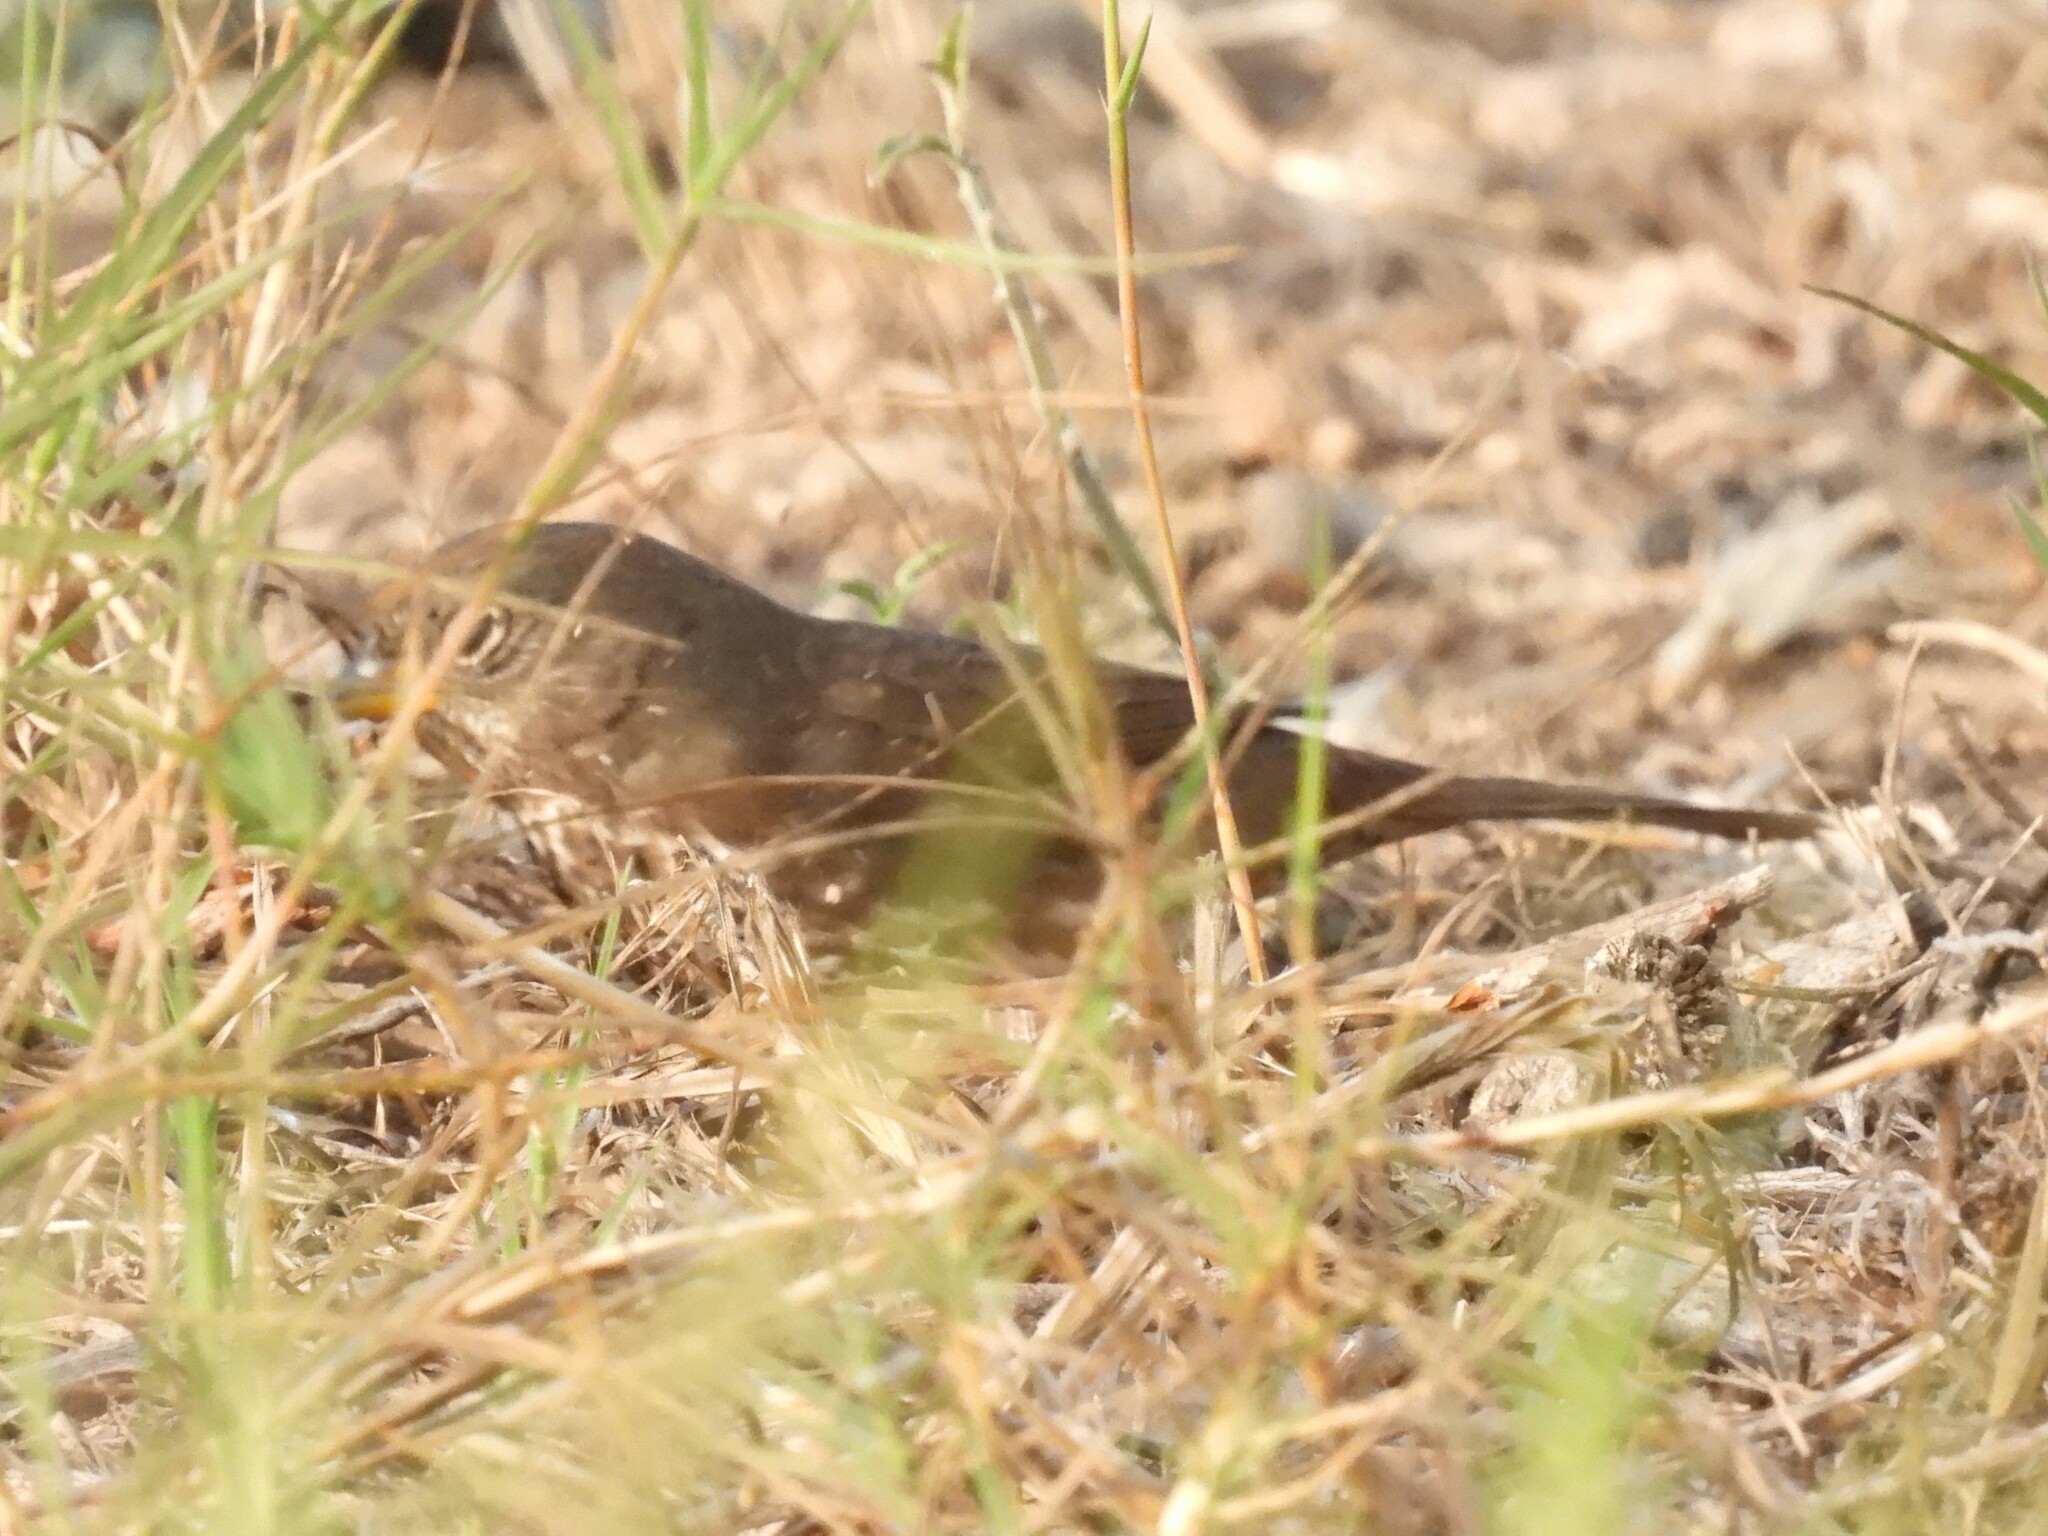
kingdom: Animalia
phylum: Chordata
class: Aves
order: Passeriformes
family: Passerellidae
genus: Passerella
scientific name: Passerella iliaca
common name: Fox sparrow
